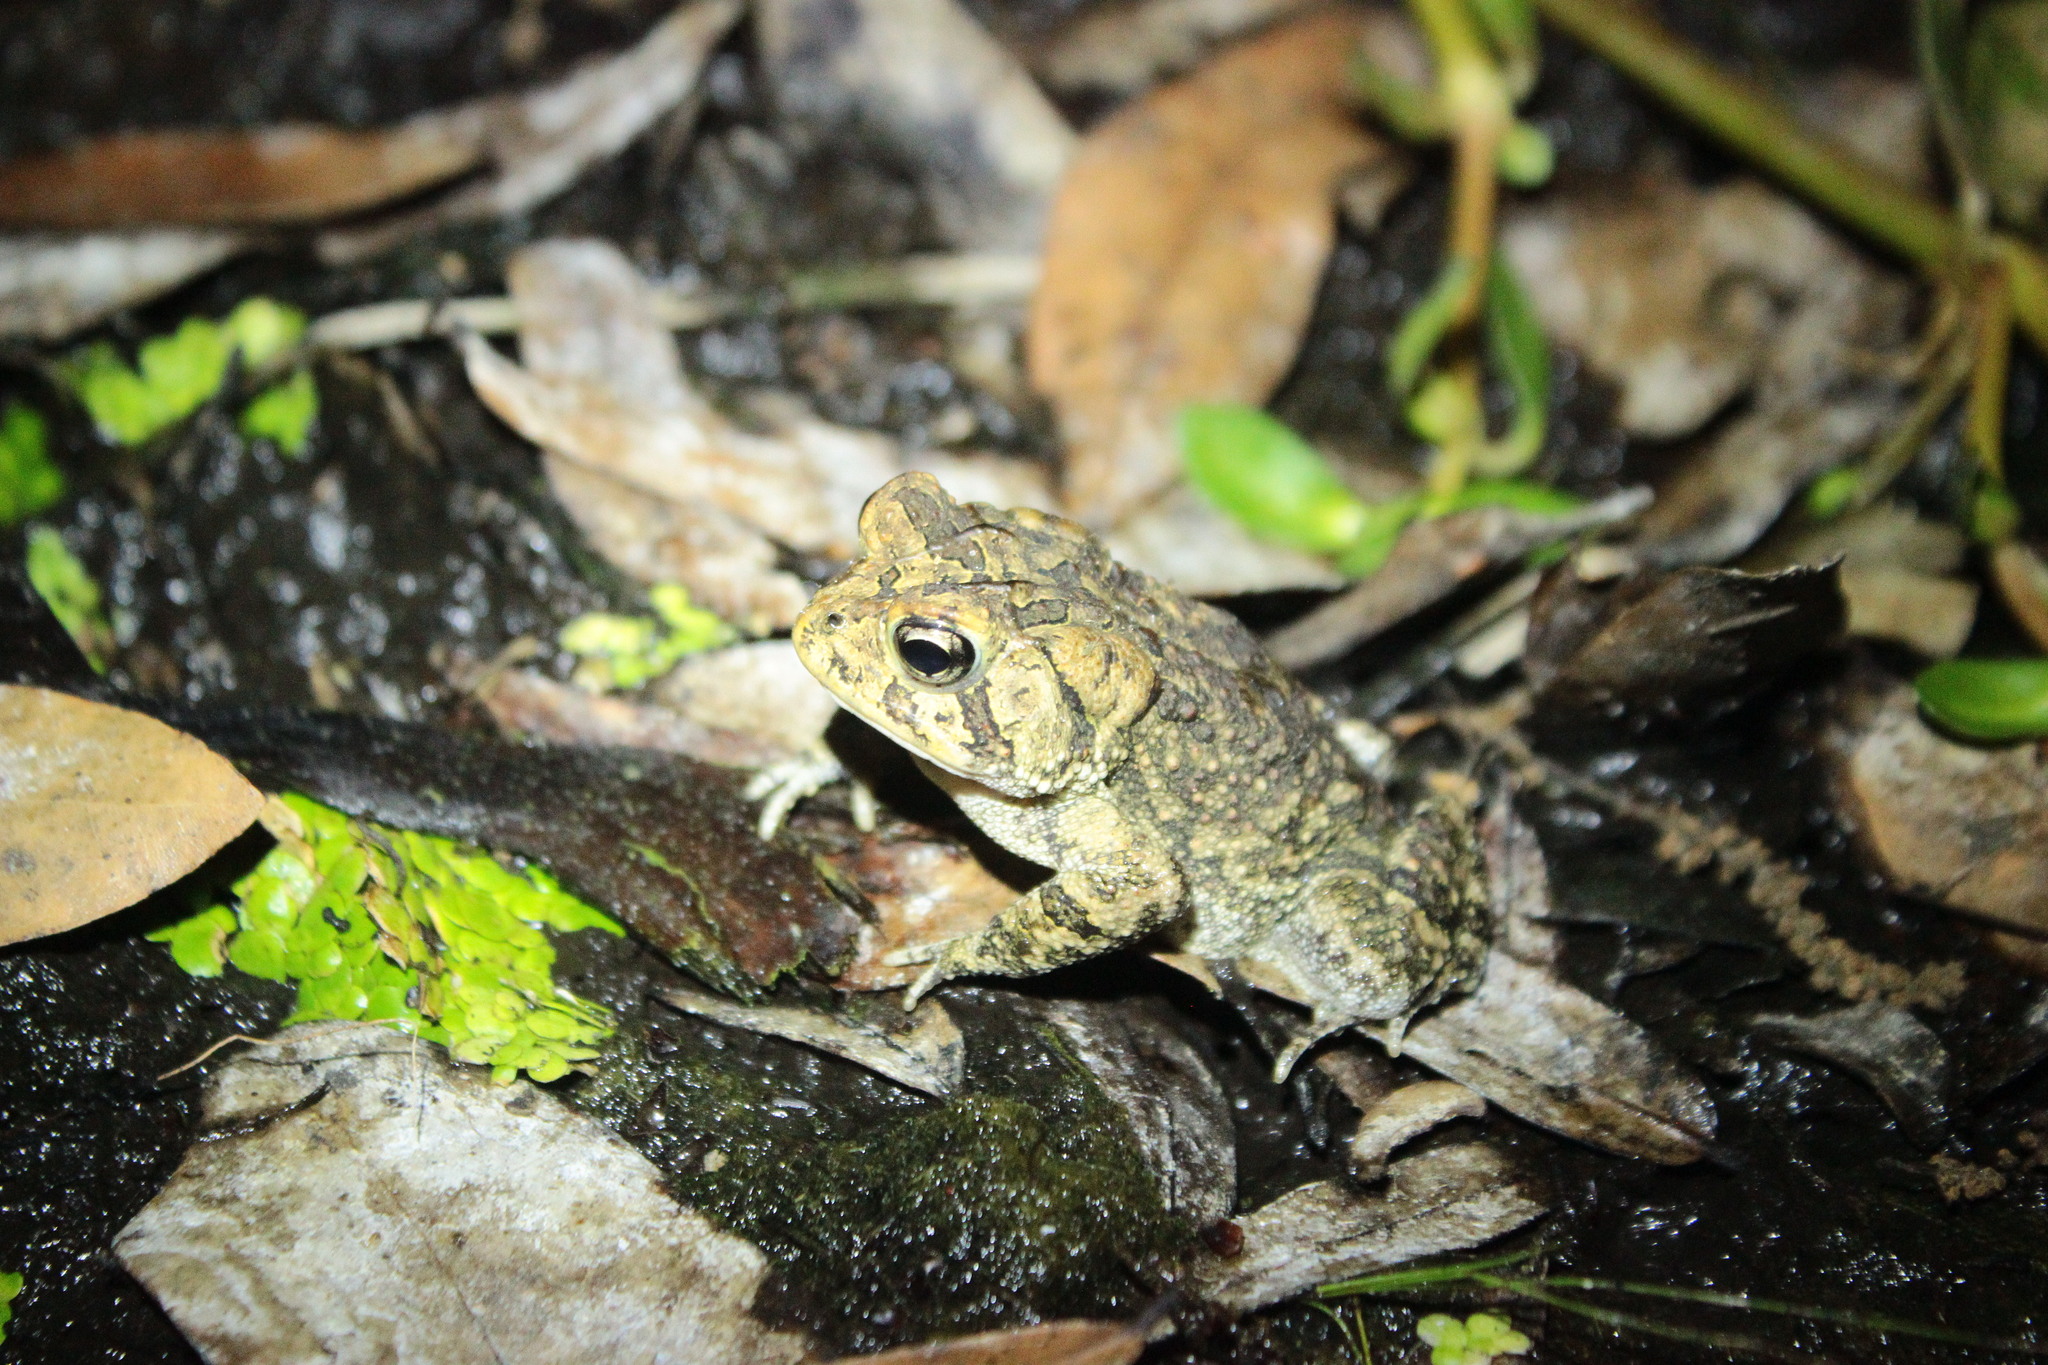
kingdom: Animalia
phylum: Chordata
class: Amphibia
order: Anura
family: Bufonidae
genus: Anaxyrus
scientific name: Anaxyrus terrestris
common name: Southern toad
